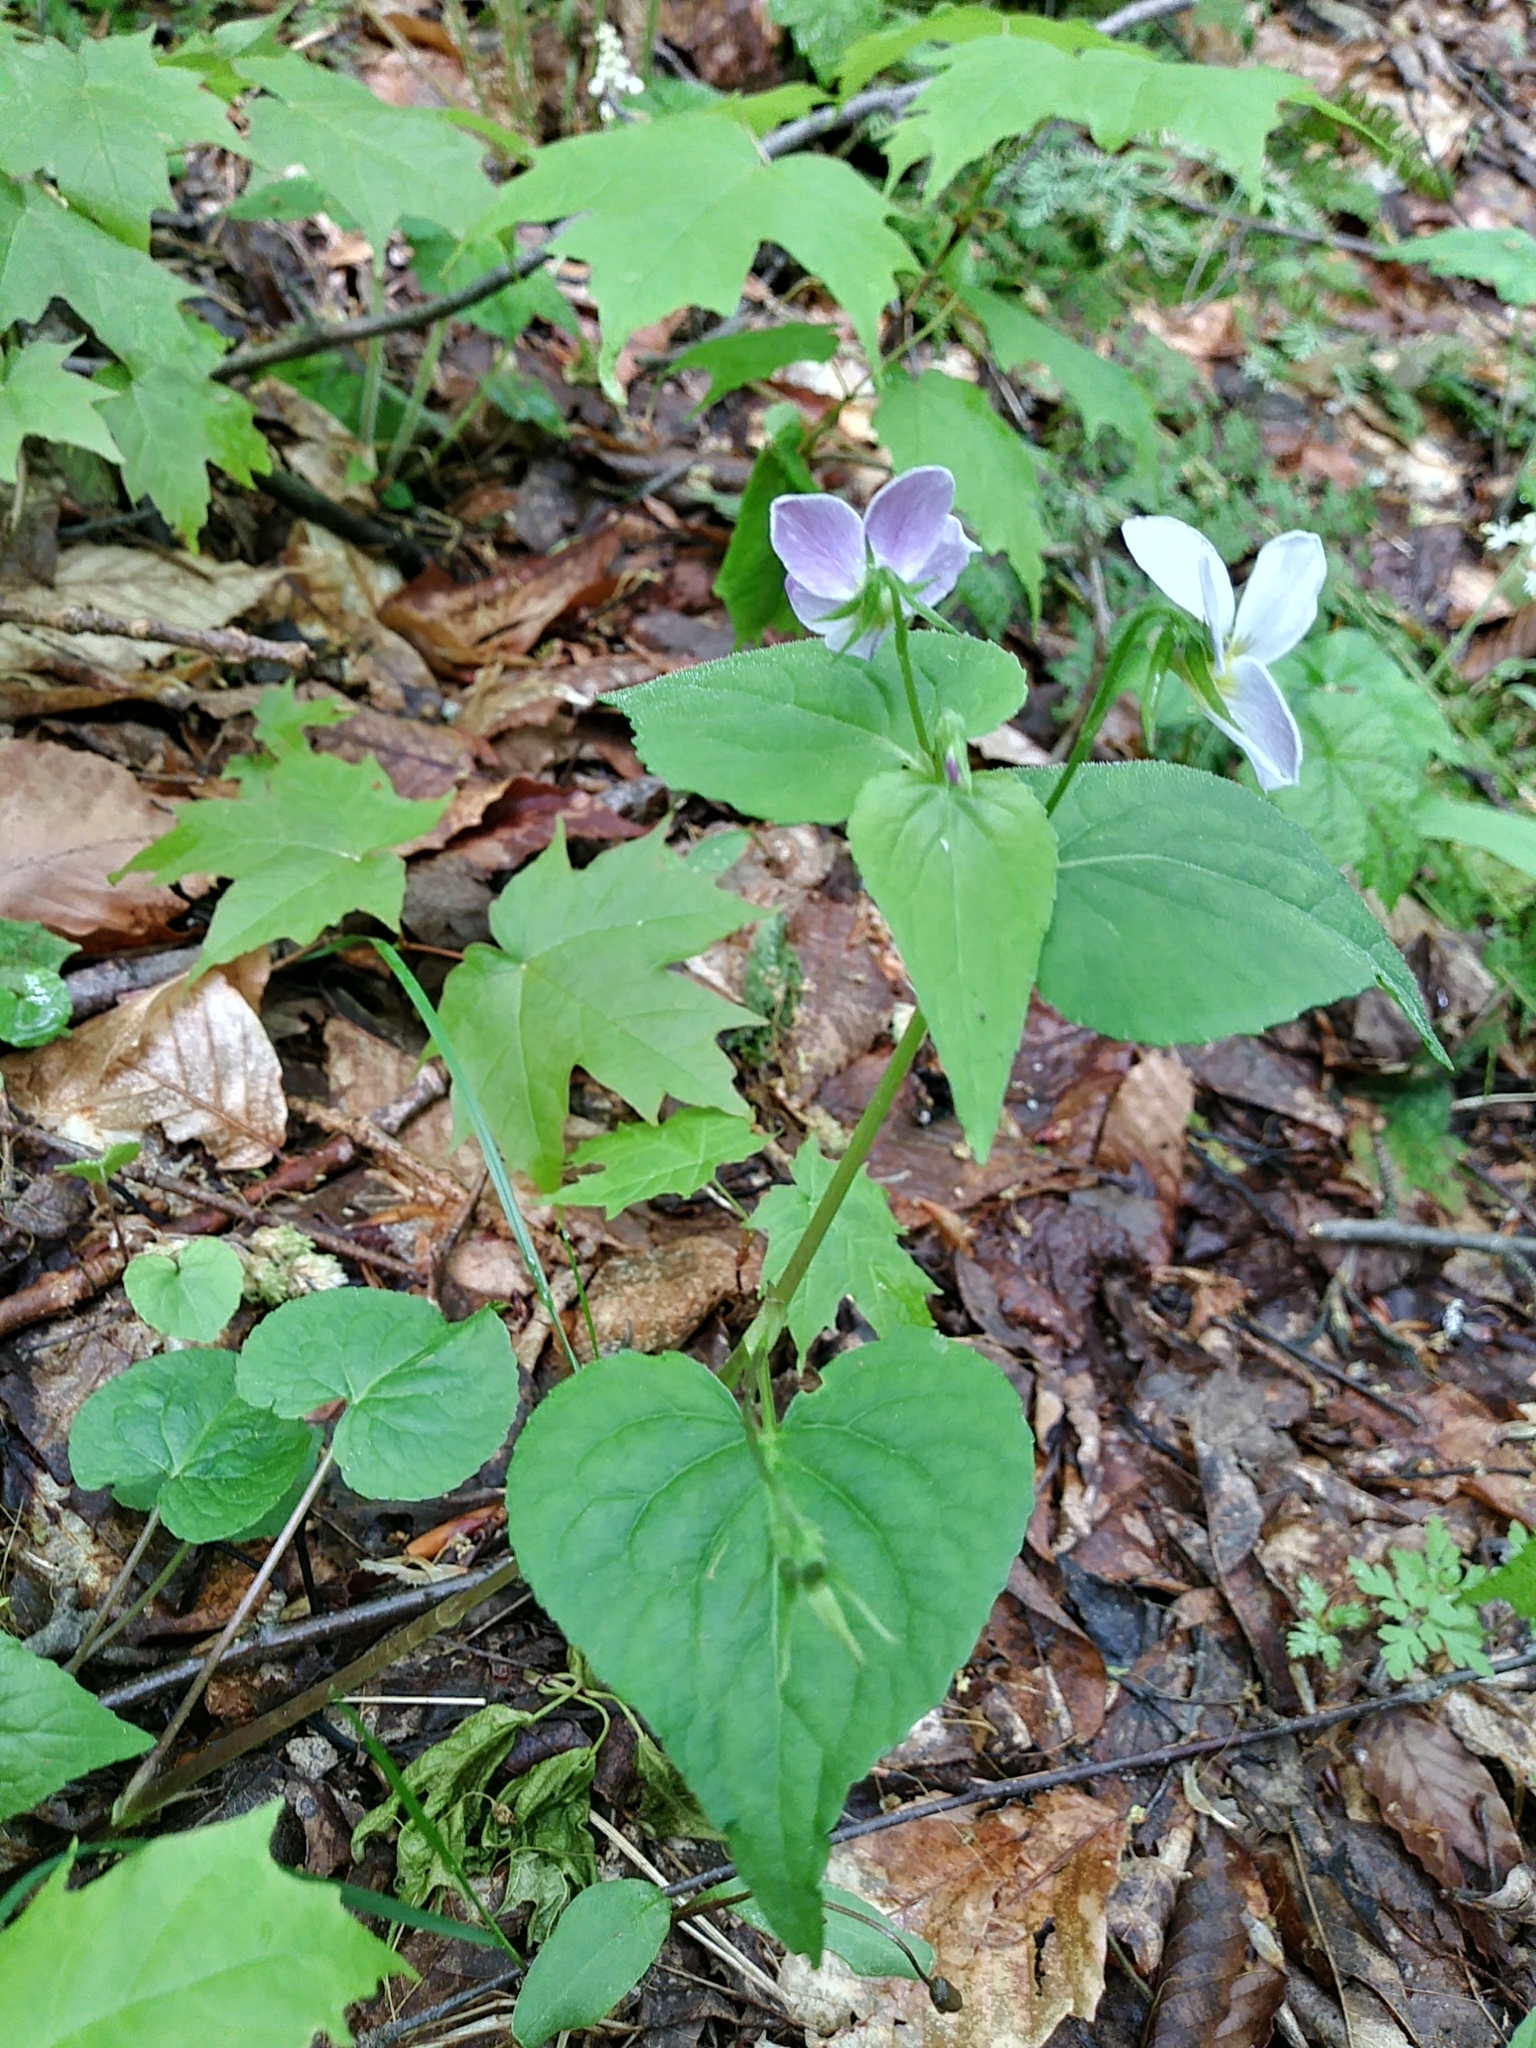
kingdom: Plantae
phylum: Tracheophyta
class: Magnoliopsida
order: Malpighiales
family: Violaceae
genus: Viola
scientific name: Viola canadensis
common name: Canada violet
